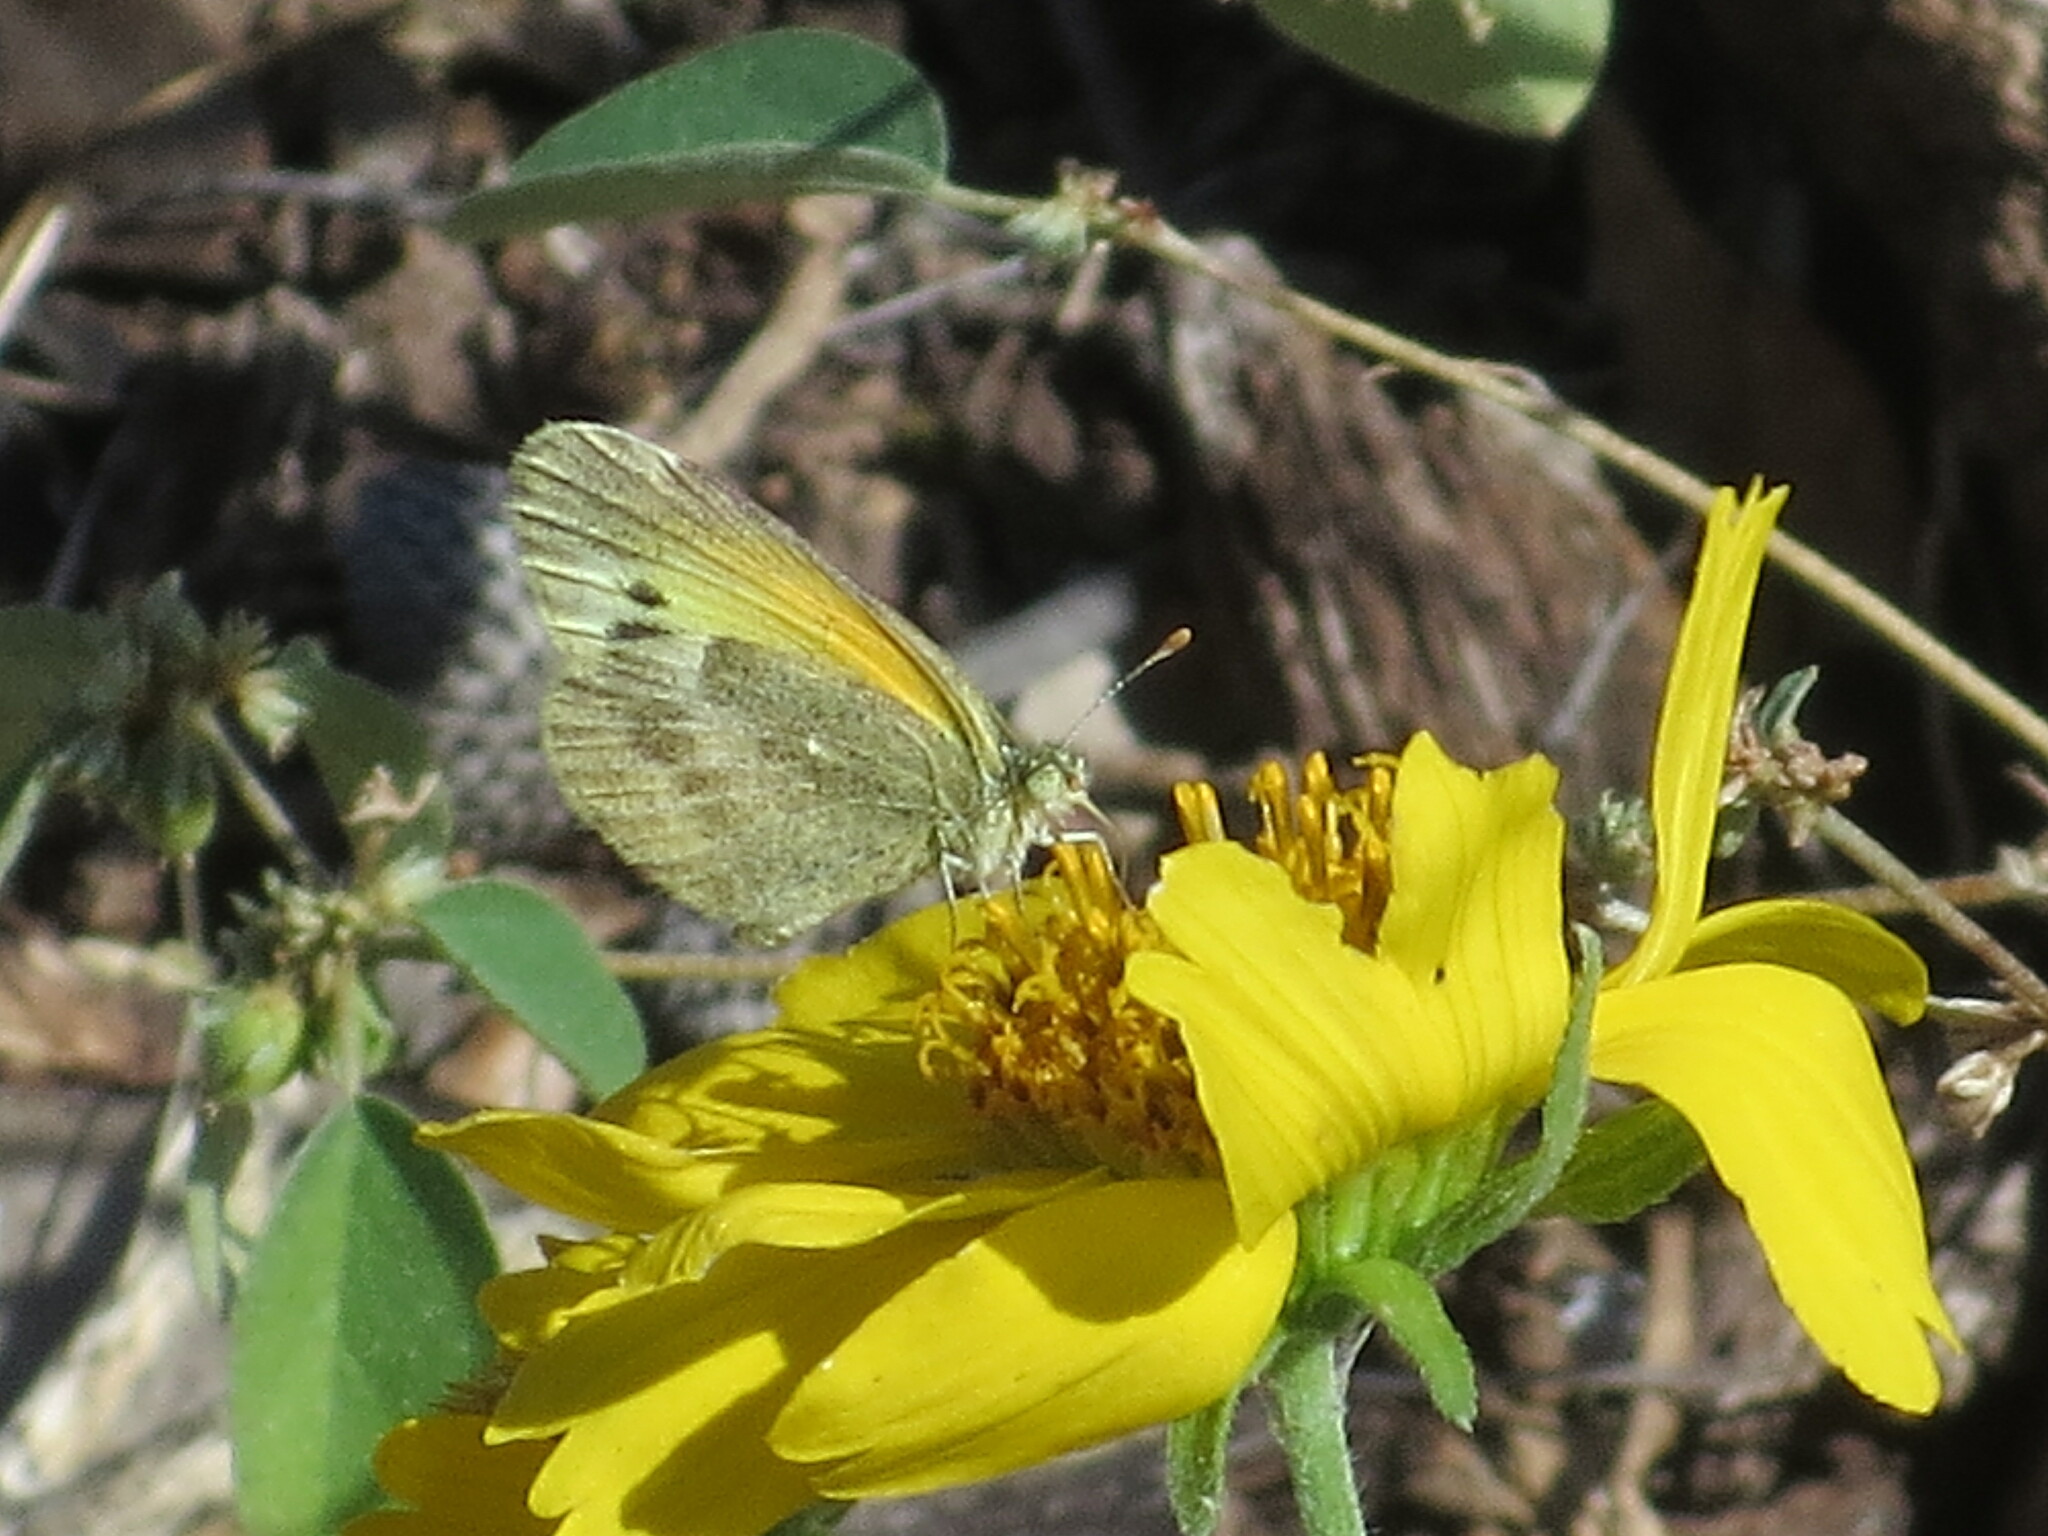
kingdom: Animalia
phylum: Arthropoda
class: Insecta
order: Lepidoptera
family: Pieridae
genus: Nathalis
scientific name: Nathalis iole
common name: Dainty sulphur
